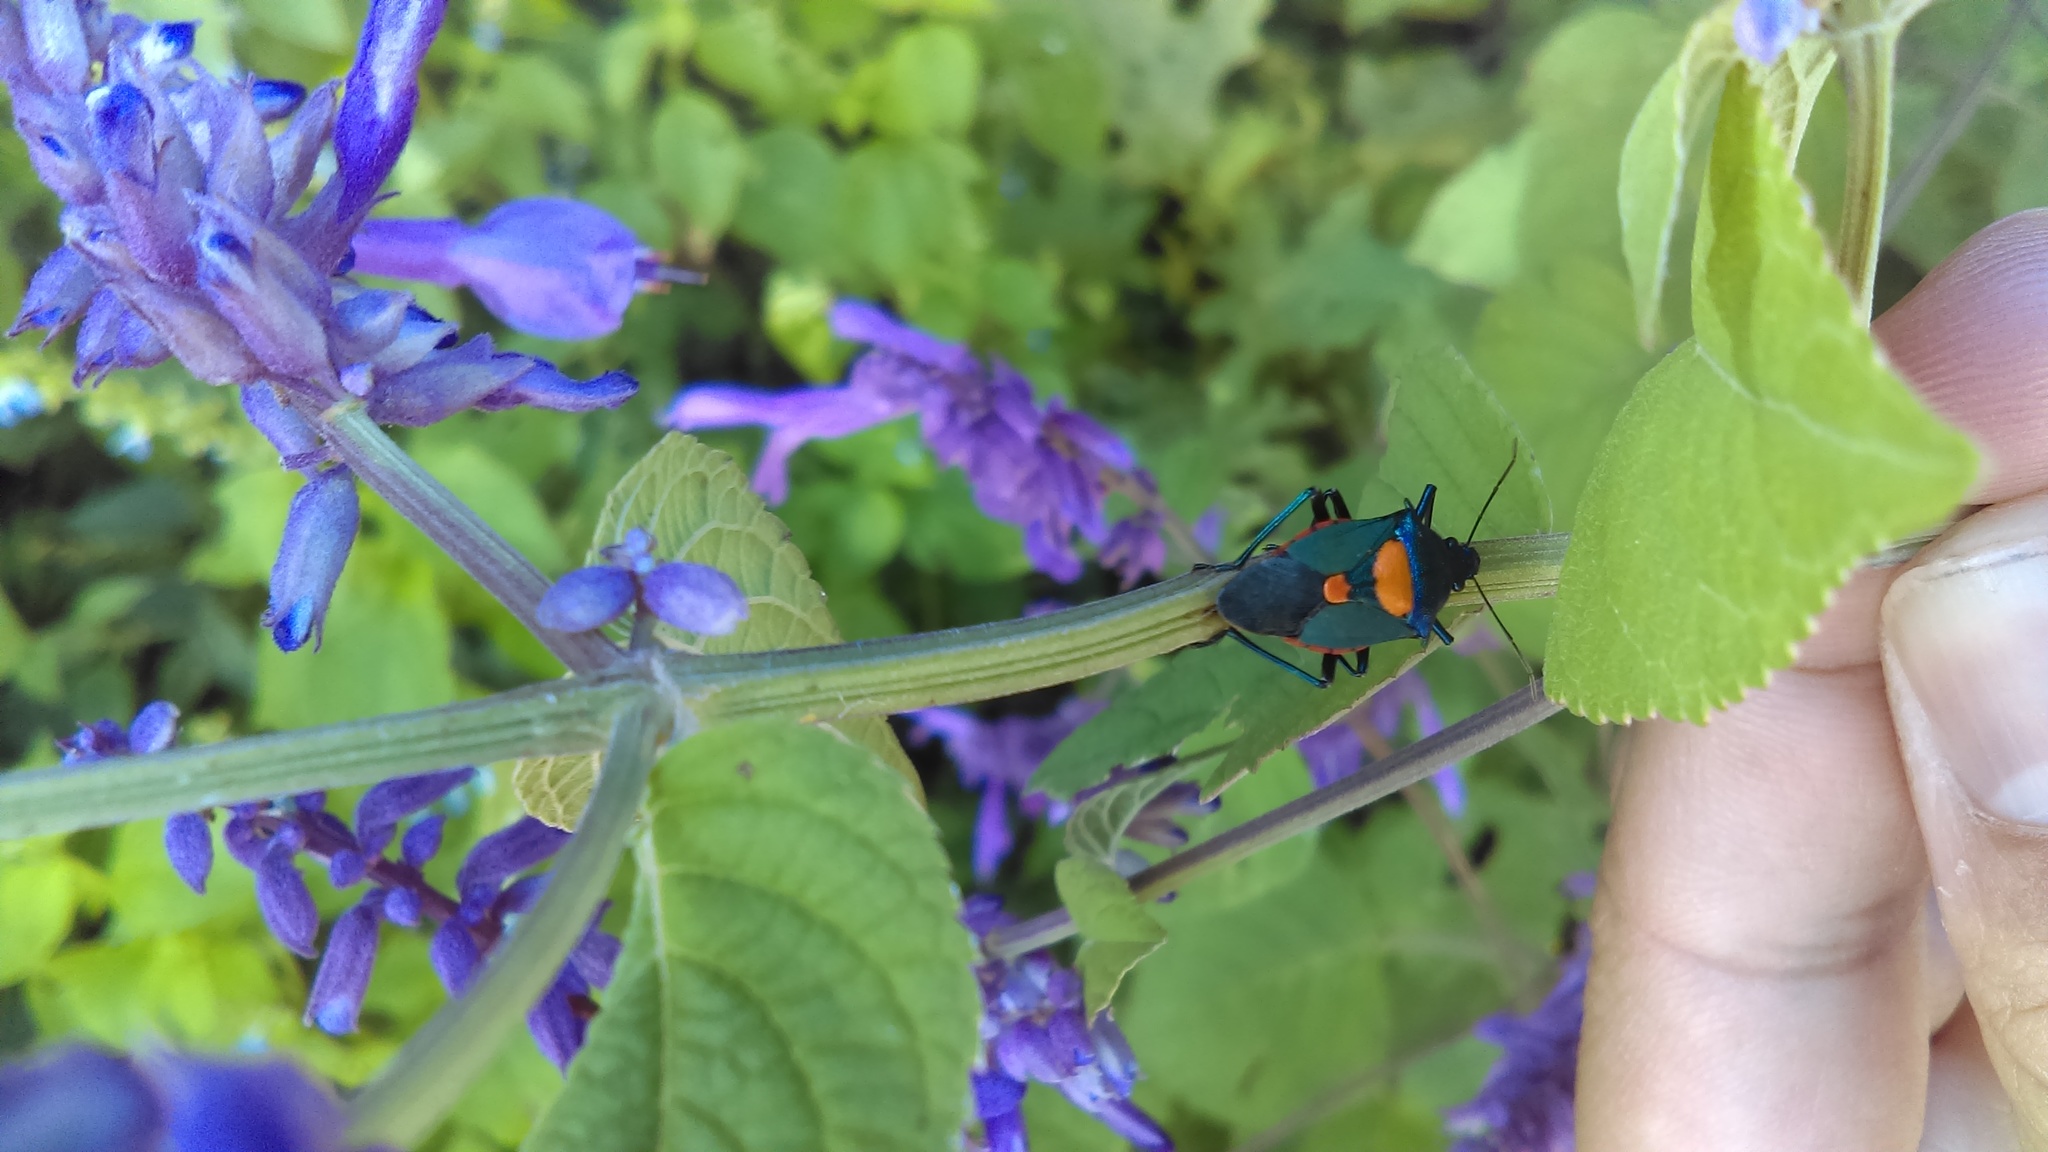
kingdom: Animalia
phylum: Arthropoda
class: Insecta
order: Hemiptera
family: Pentatomidae
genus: Euthyrhynchus
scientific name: Euthyrhynchus floridanus
